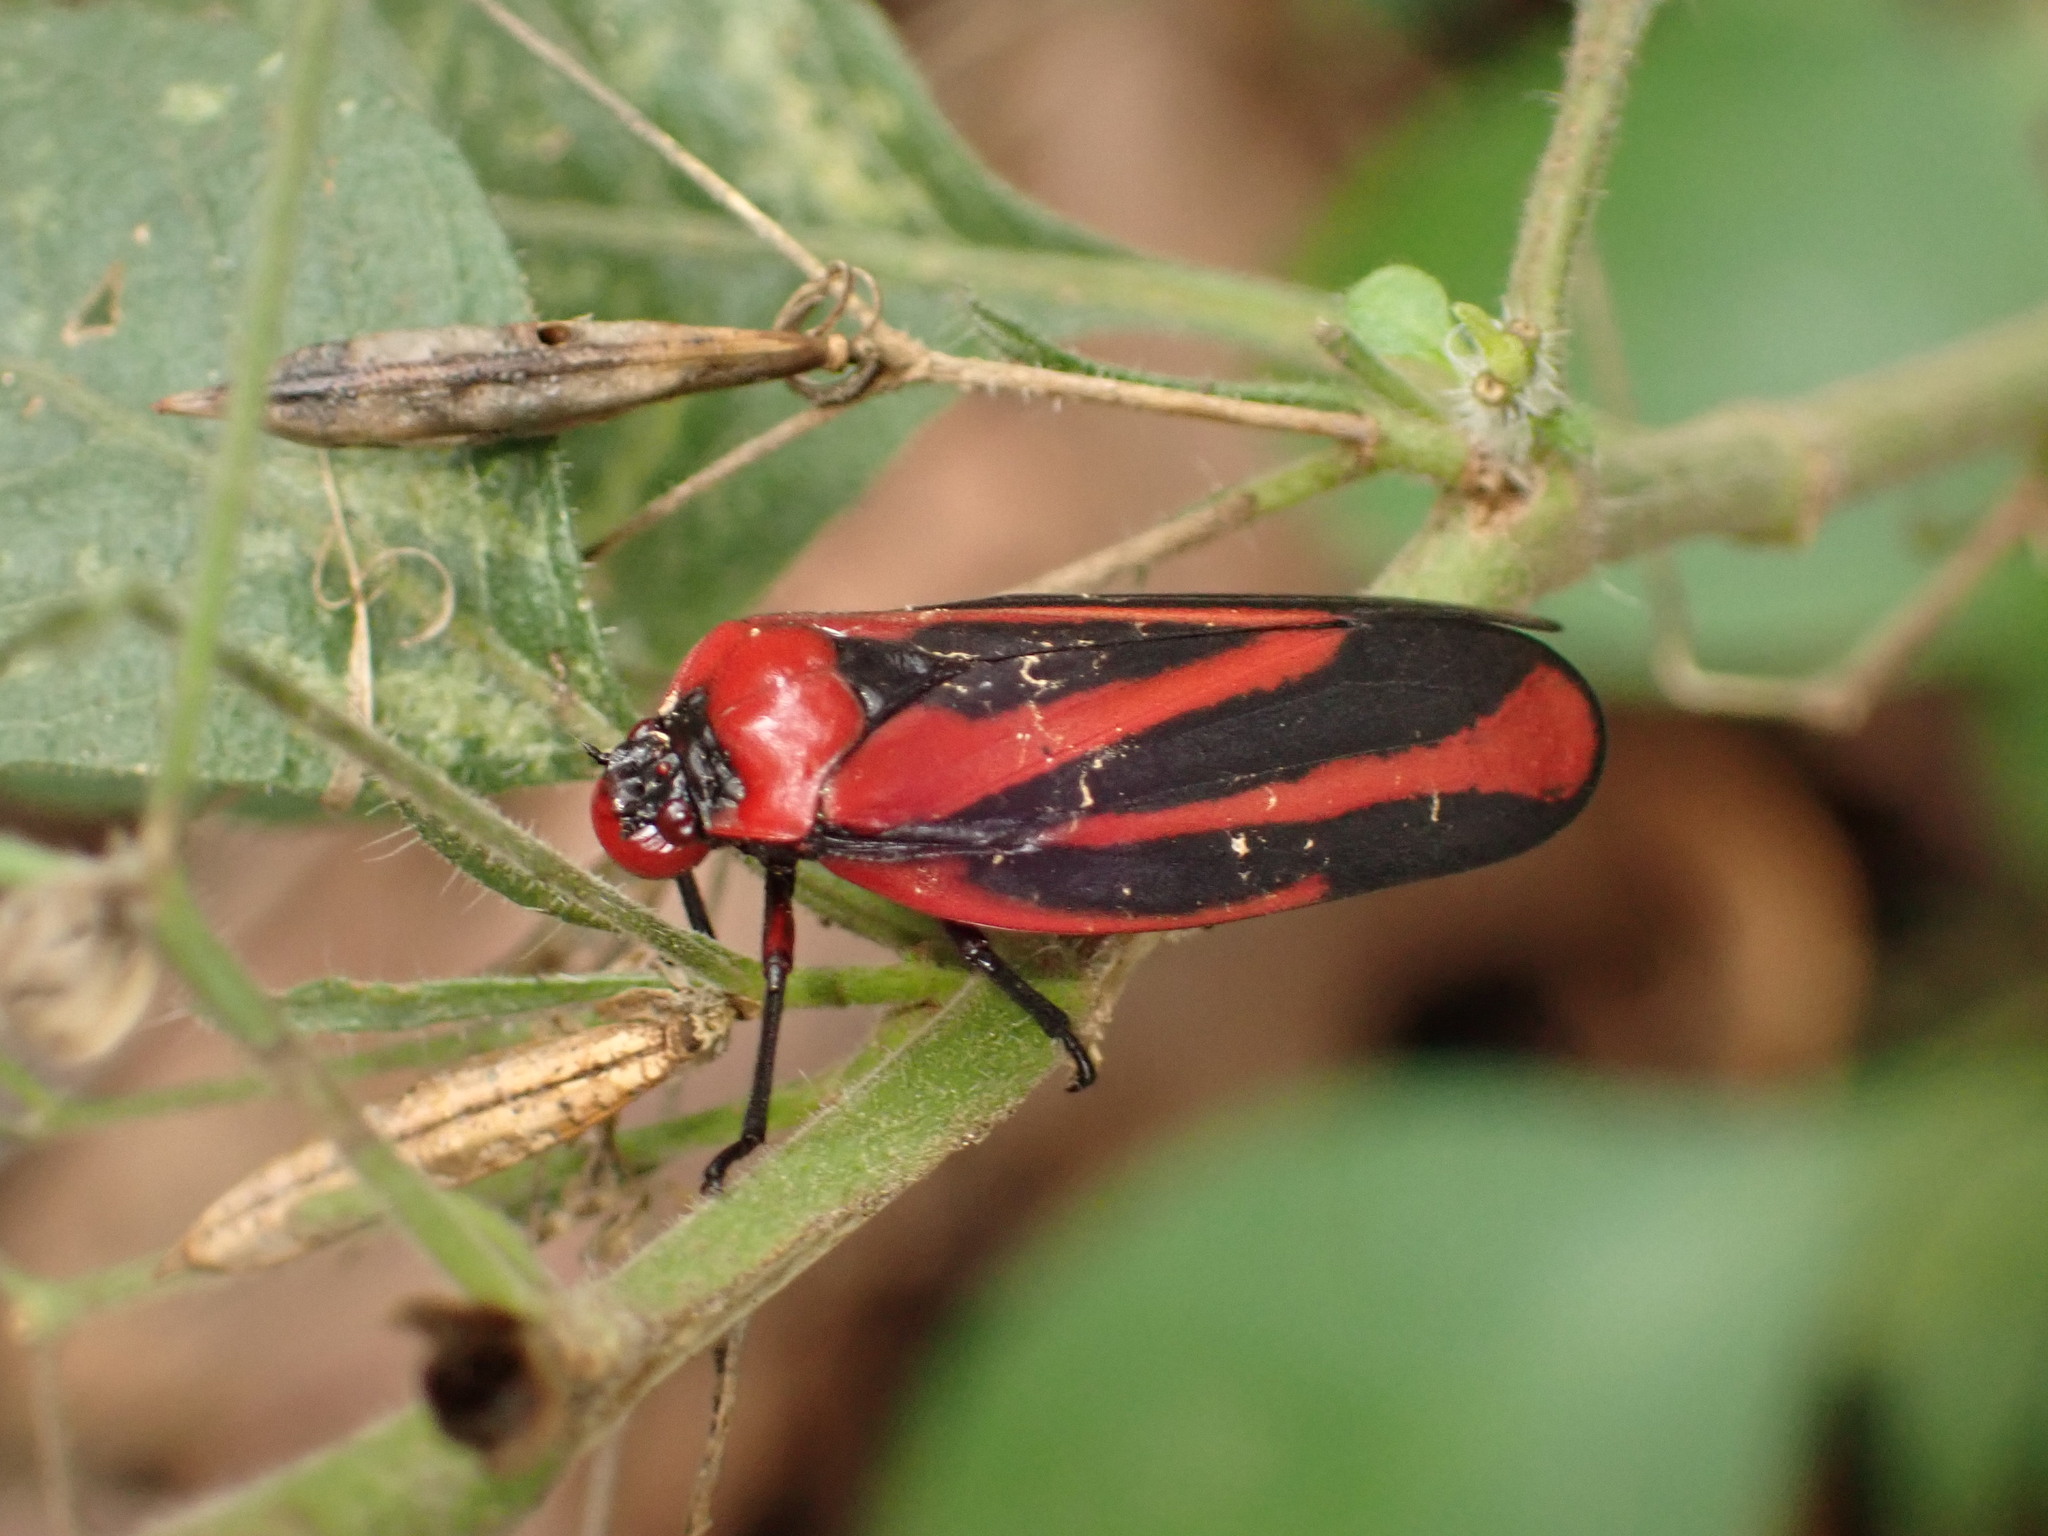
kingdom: Animalia
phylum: Arthropoda
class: Insecta
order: Hemiptera
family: Cercopidae
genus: Tomaspis
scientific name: Tomaspis furcata
